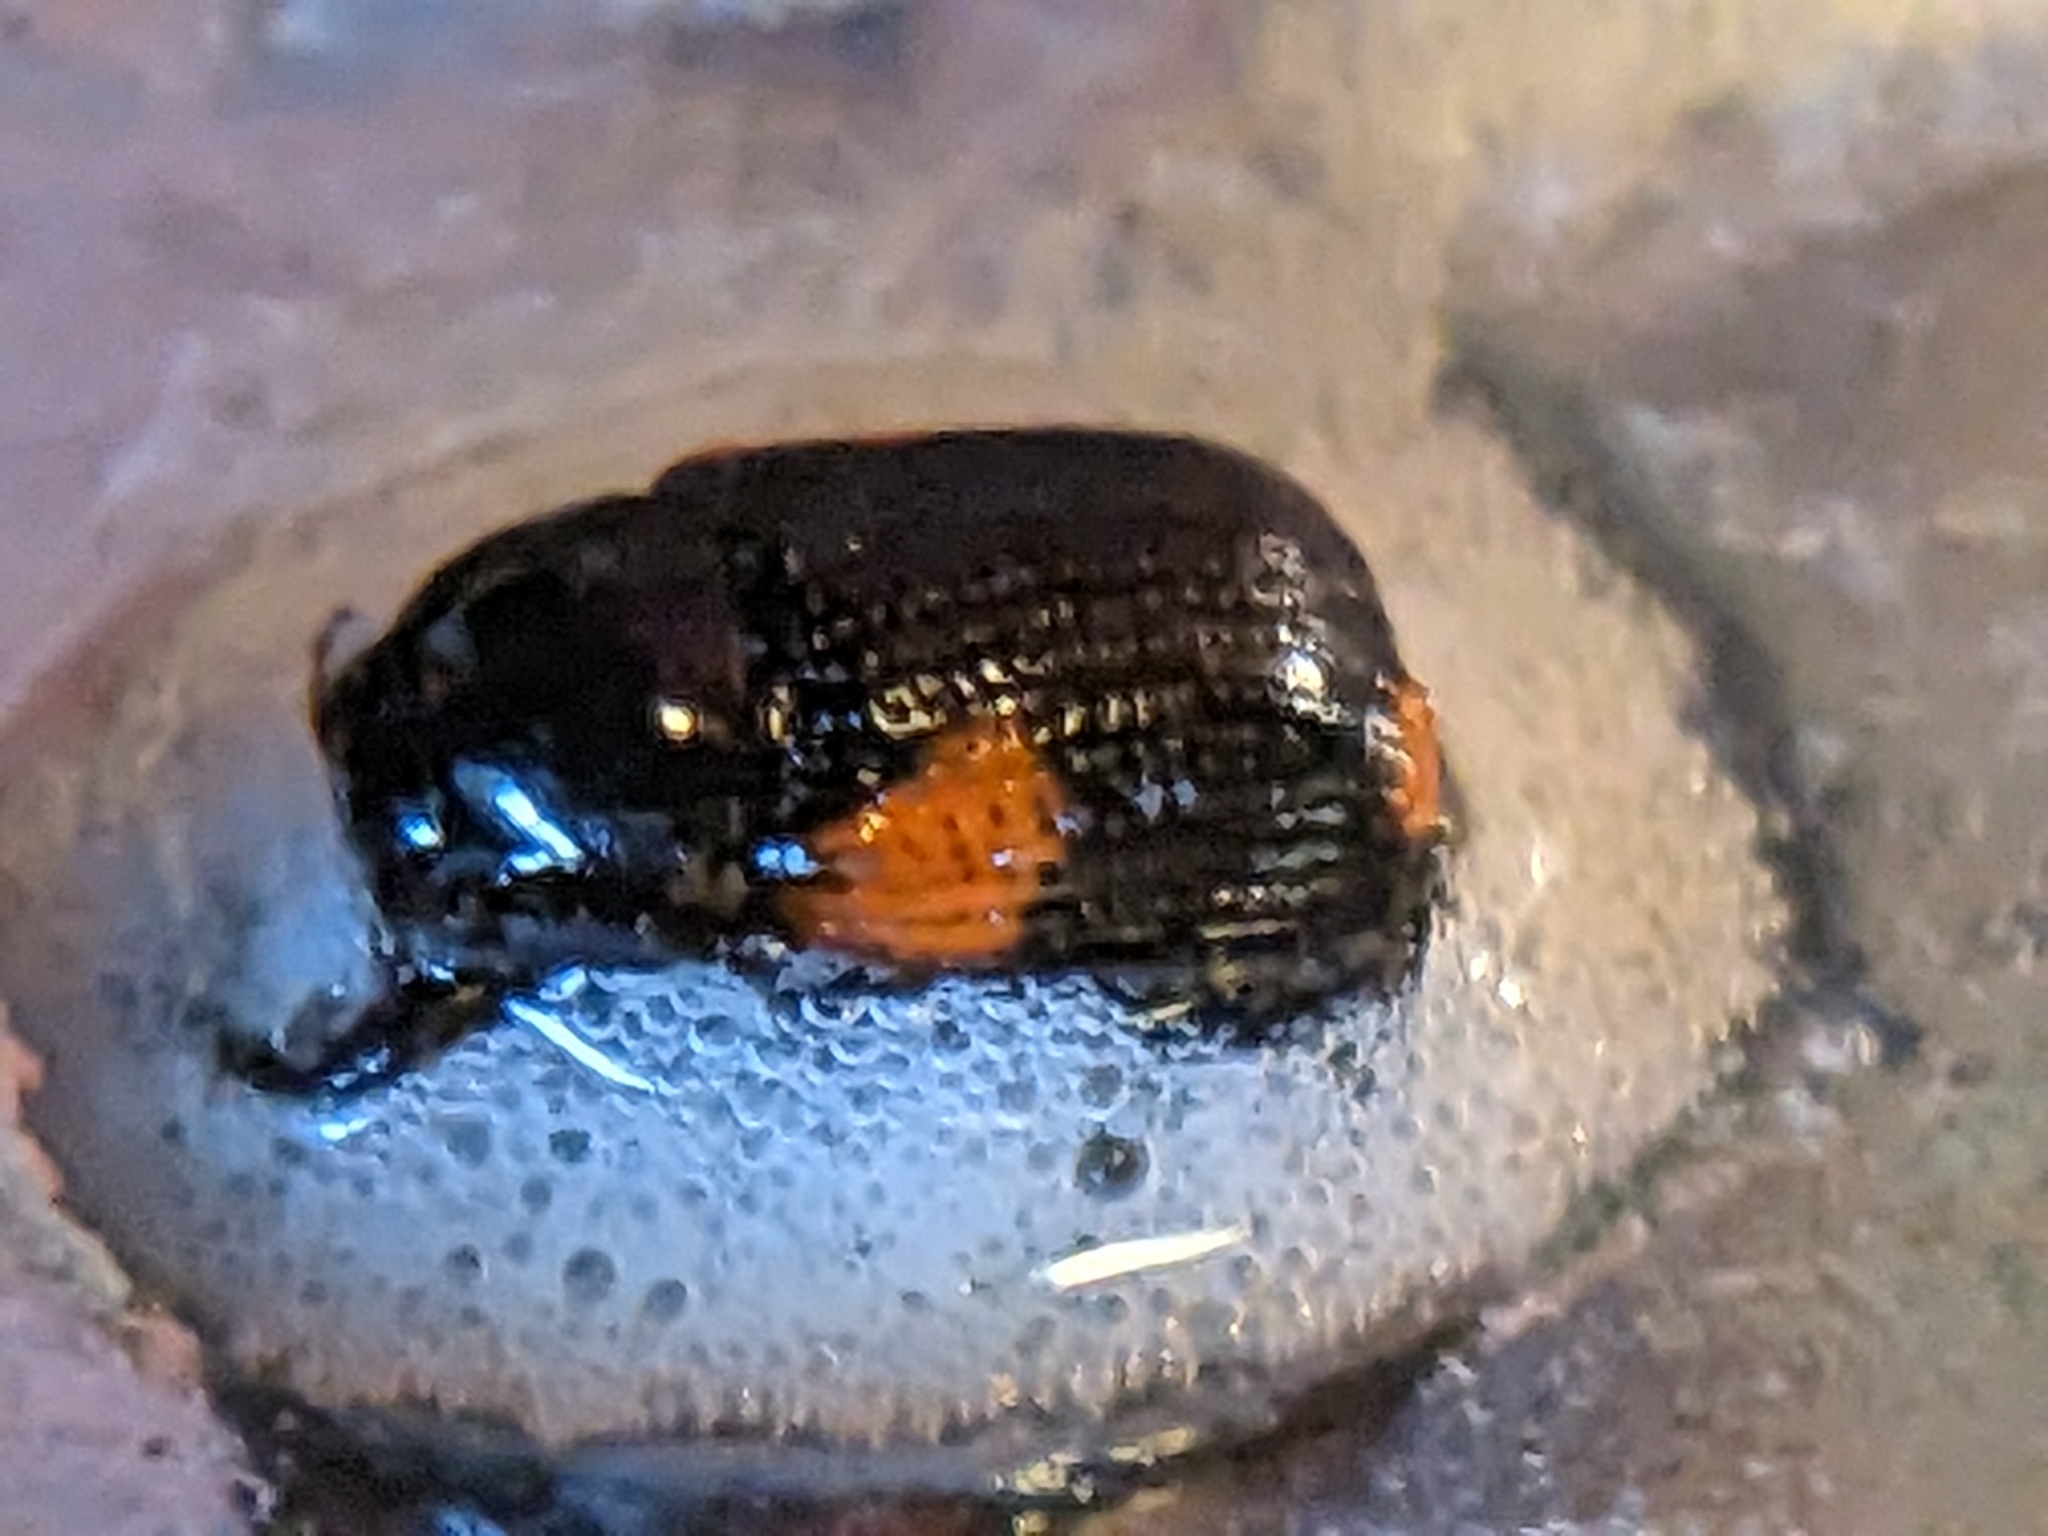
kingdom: Animalia
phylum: Arthropoda
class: Insecta
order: Coleoptera
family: Chrysomelidae
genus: Cryptocephalus
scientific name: Cryptocephalus quadruplex
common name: Black and red sumac leaf beetle
